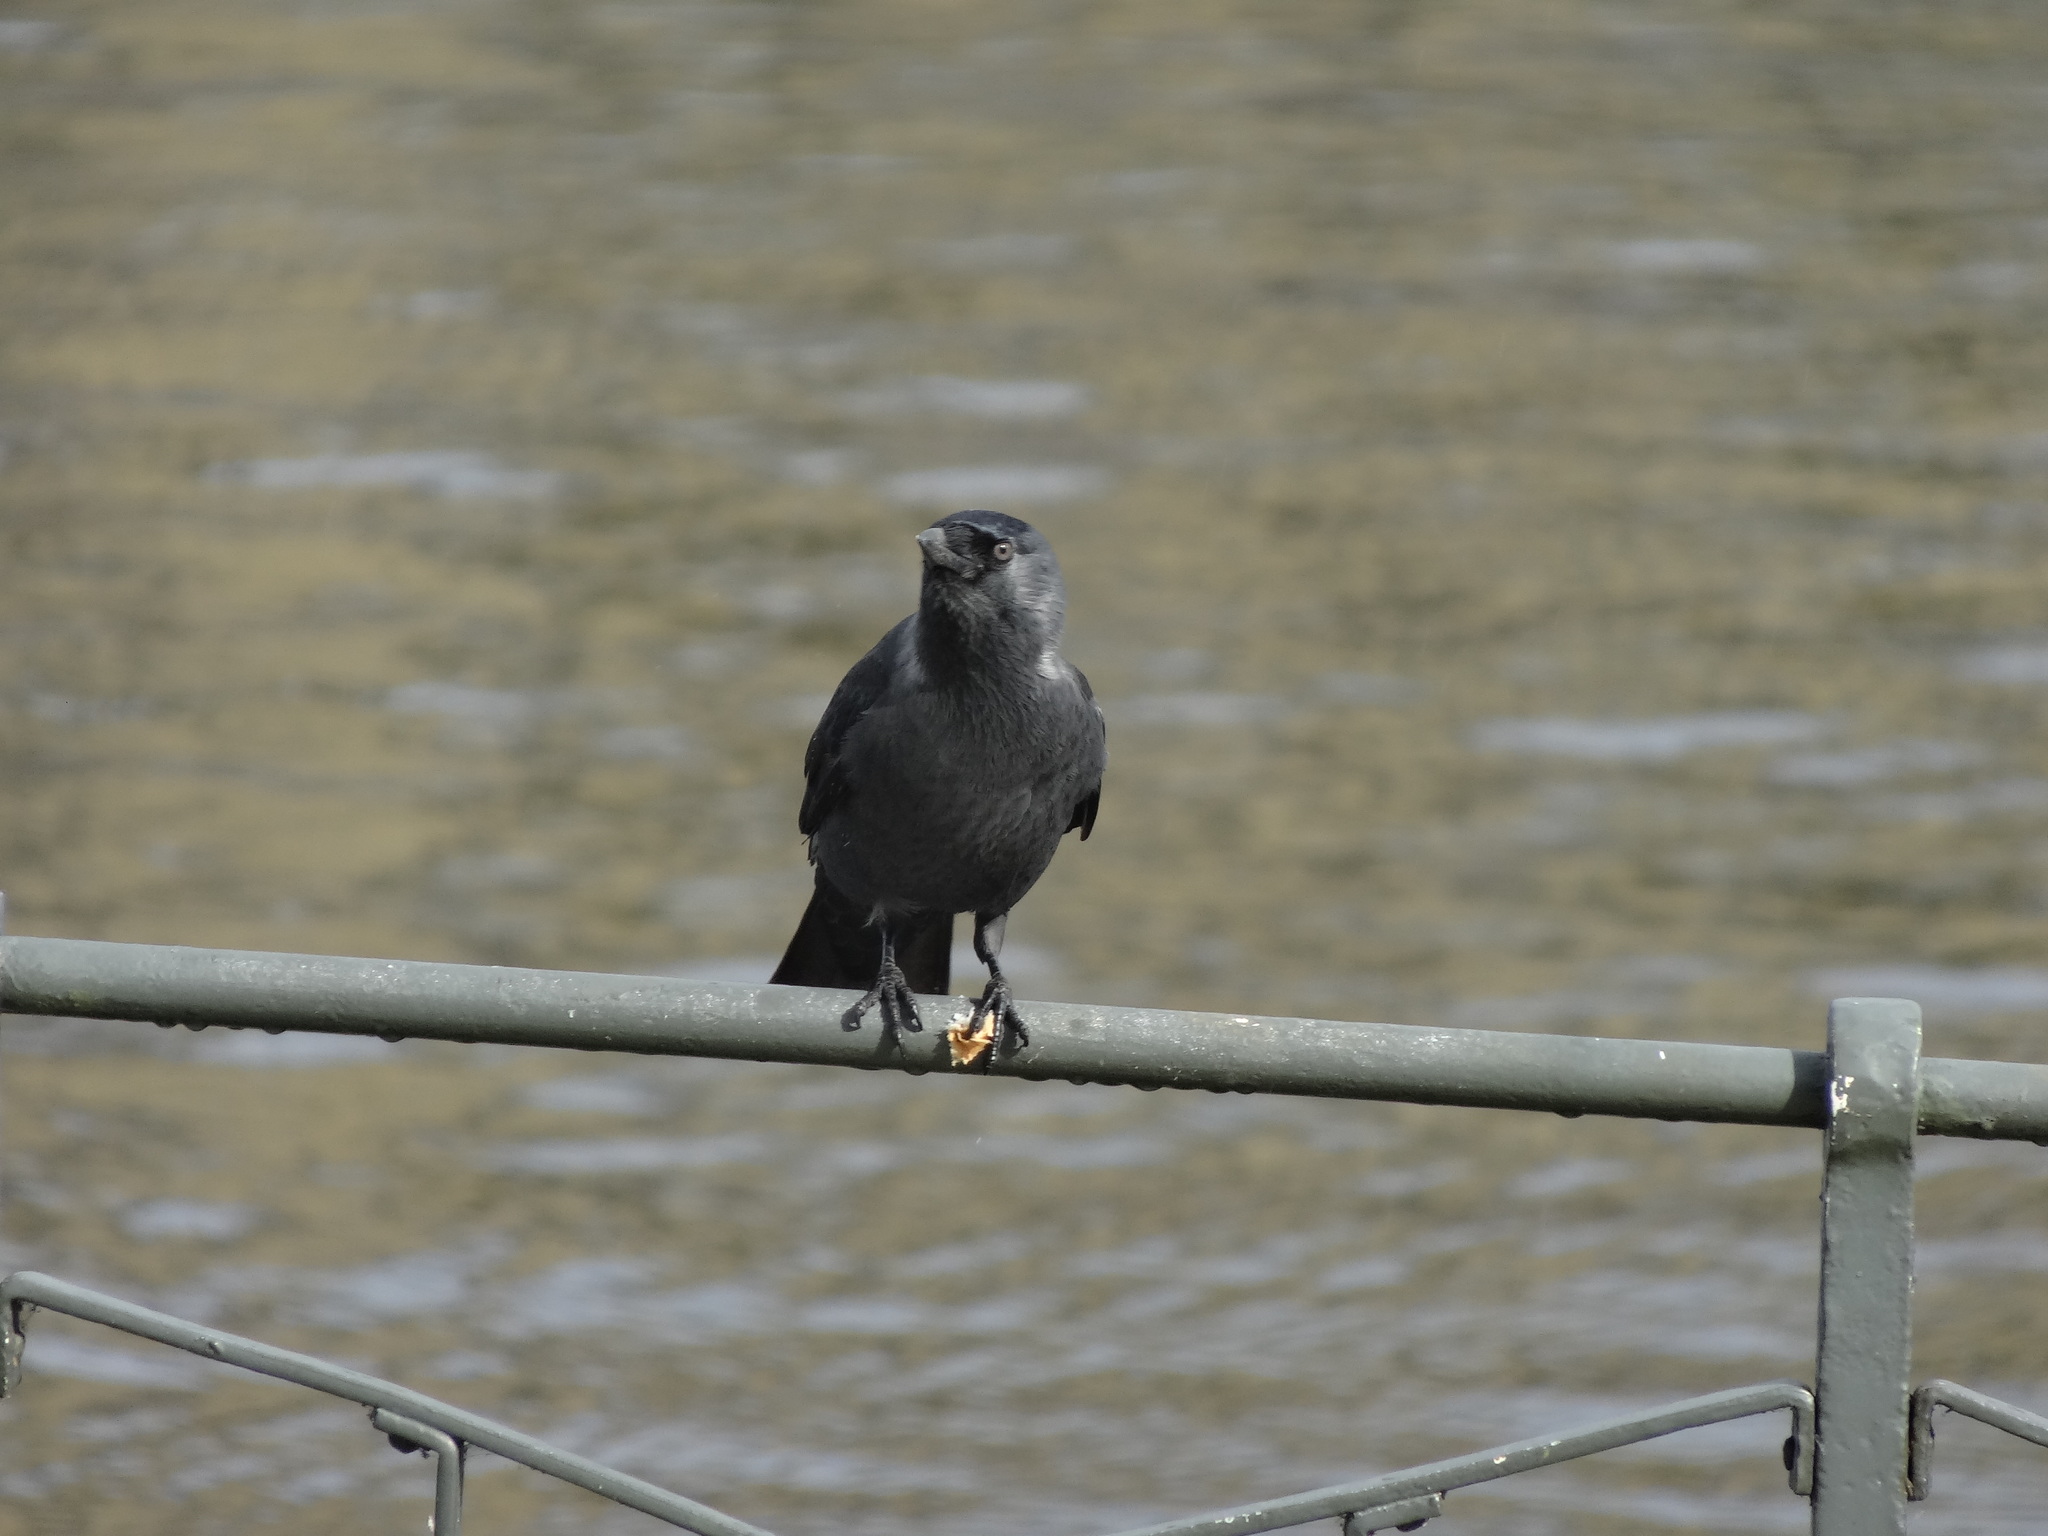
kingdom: Animalia
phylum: Chordata
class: Aves
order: Passeriformes
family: Corvidae
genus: Coloeus
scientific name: Coloeus monedula
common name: Western jackdaw
